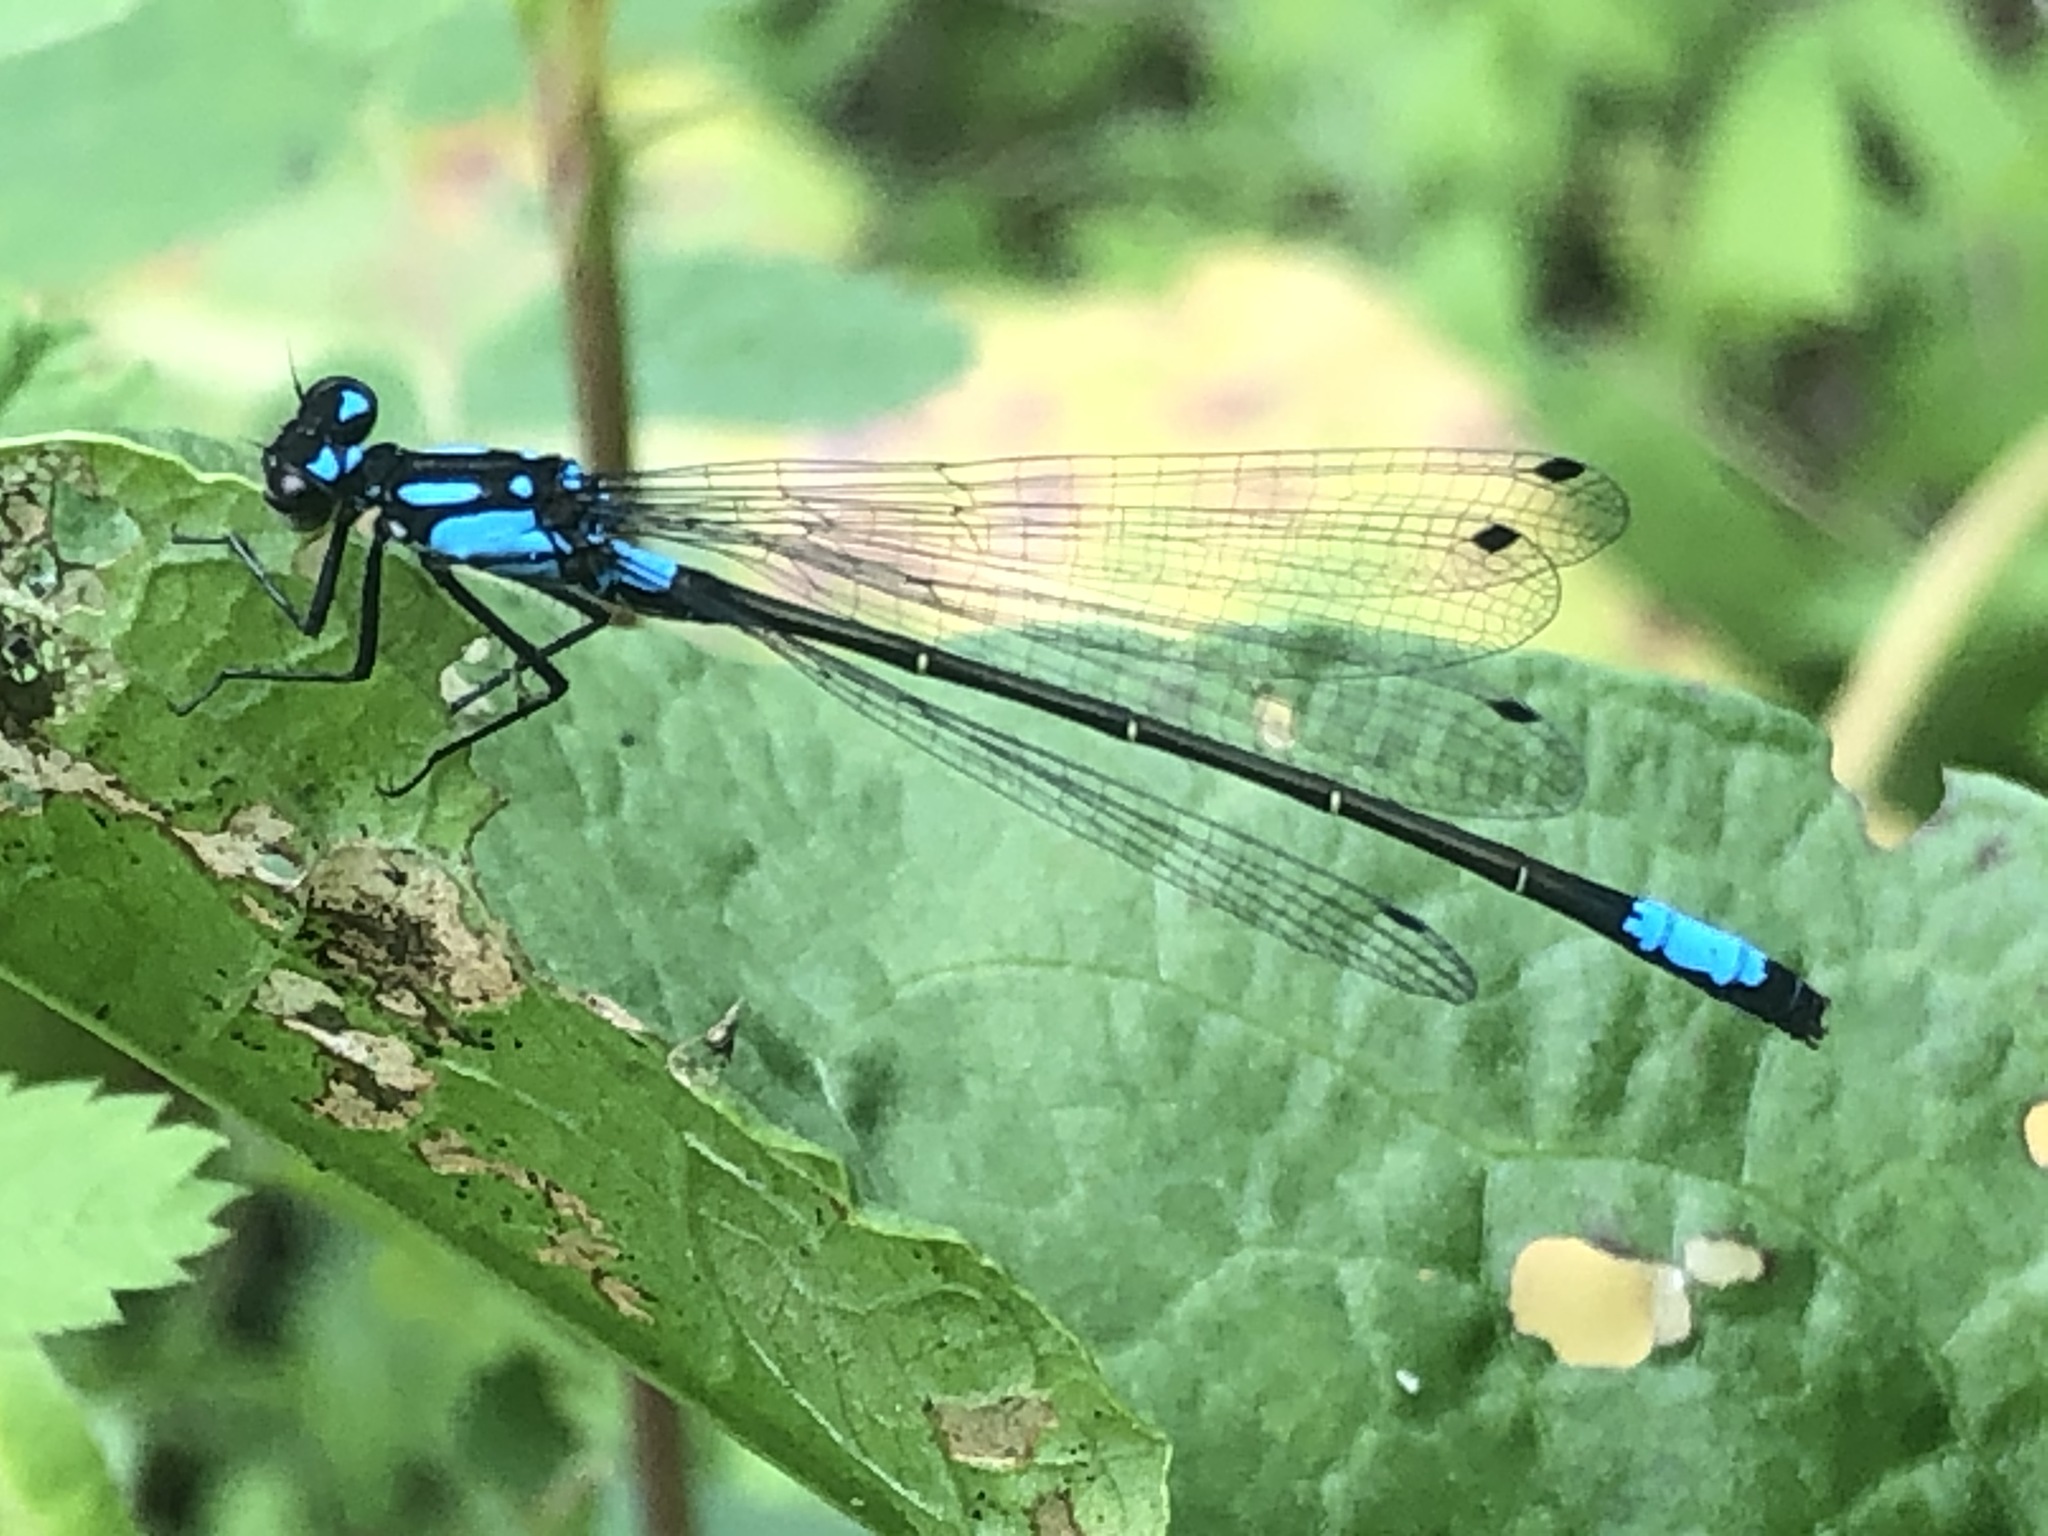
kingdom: Animalia
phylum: Arthropoda
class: Insecta
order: Odonata
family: Coenagrionidae
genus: Zoniagrion
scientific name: Zoniagrion exclamationis
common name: Exclamation damsel
